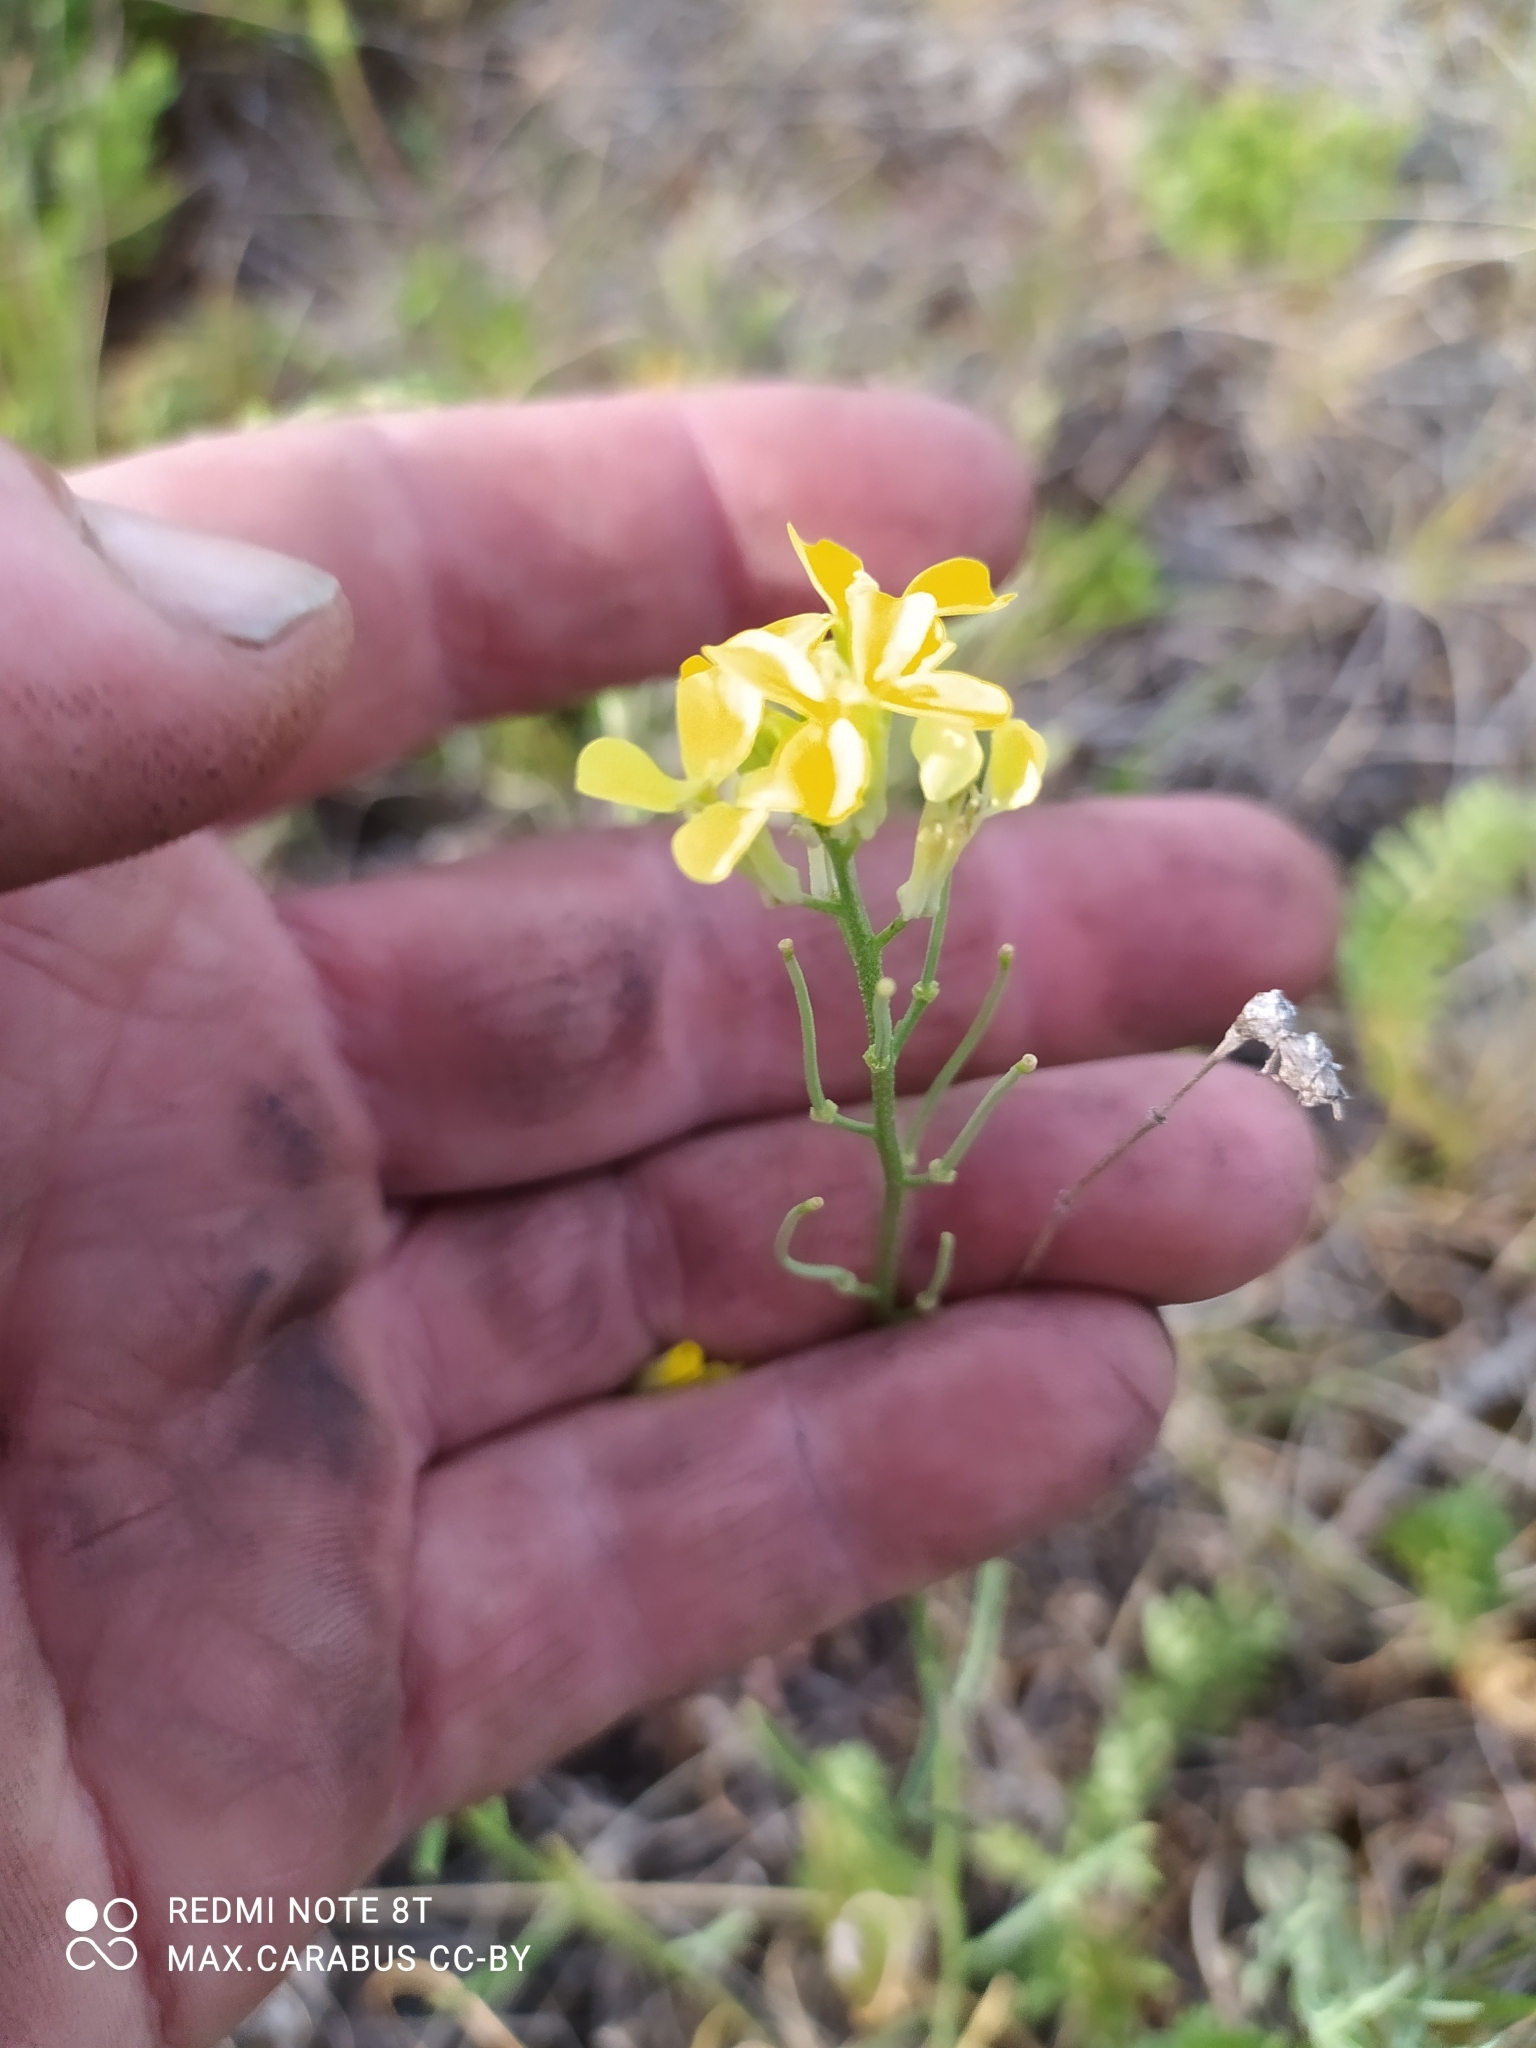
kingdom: Plantae
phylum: Tracheophyta
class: Magnoliopsida
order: Brassicales
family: Brassicaceae
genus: Erysimum
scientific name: Erysimum diffusum
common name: Diffuse wallflower
